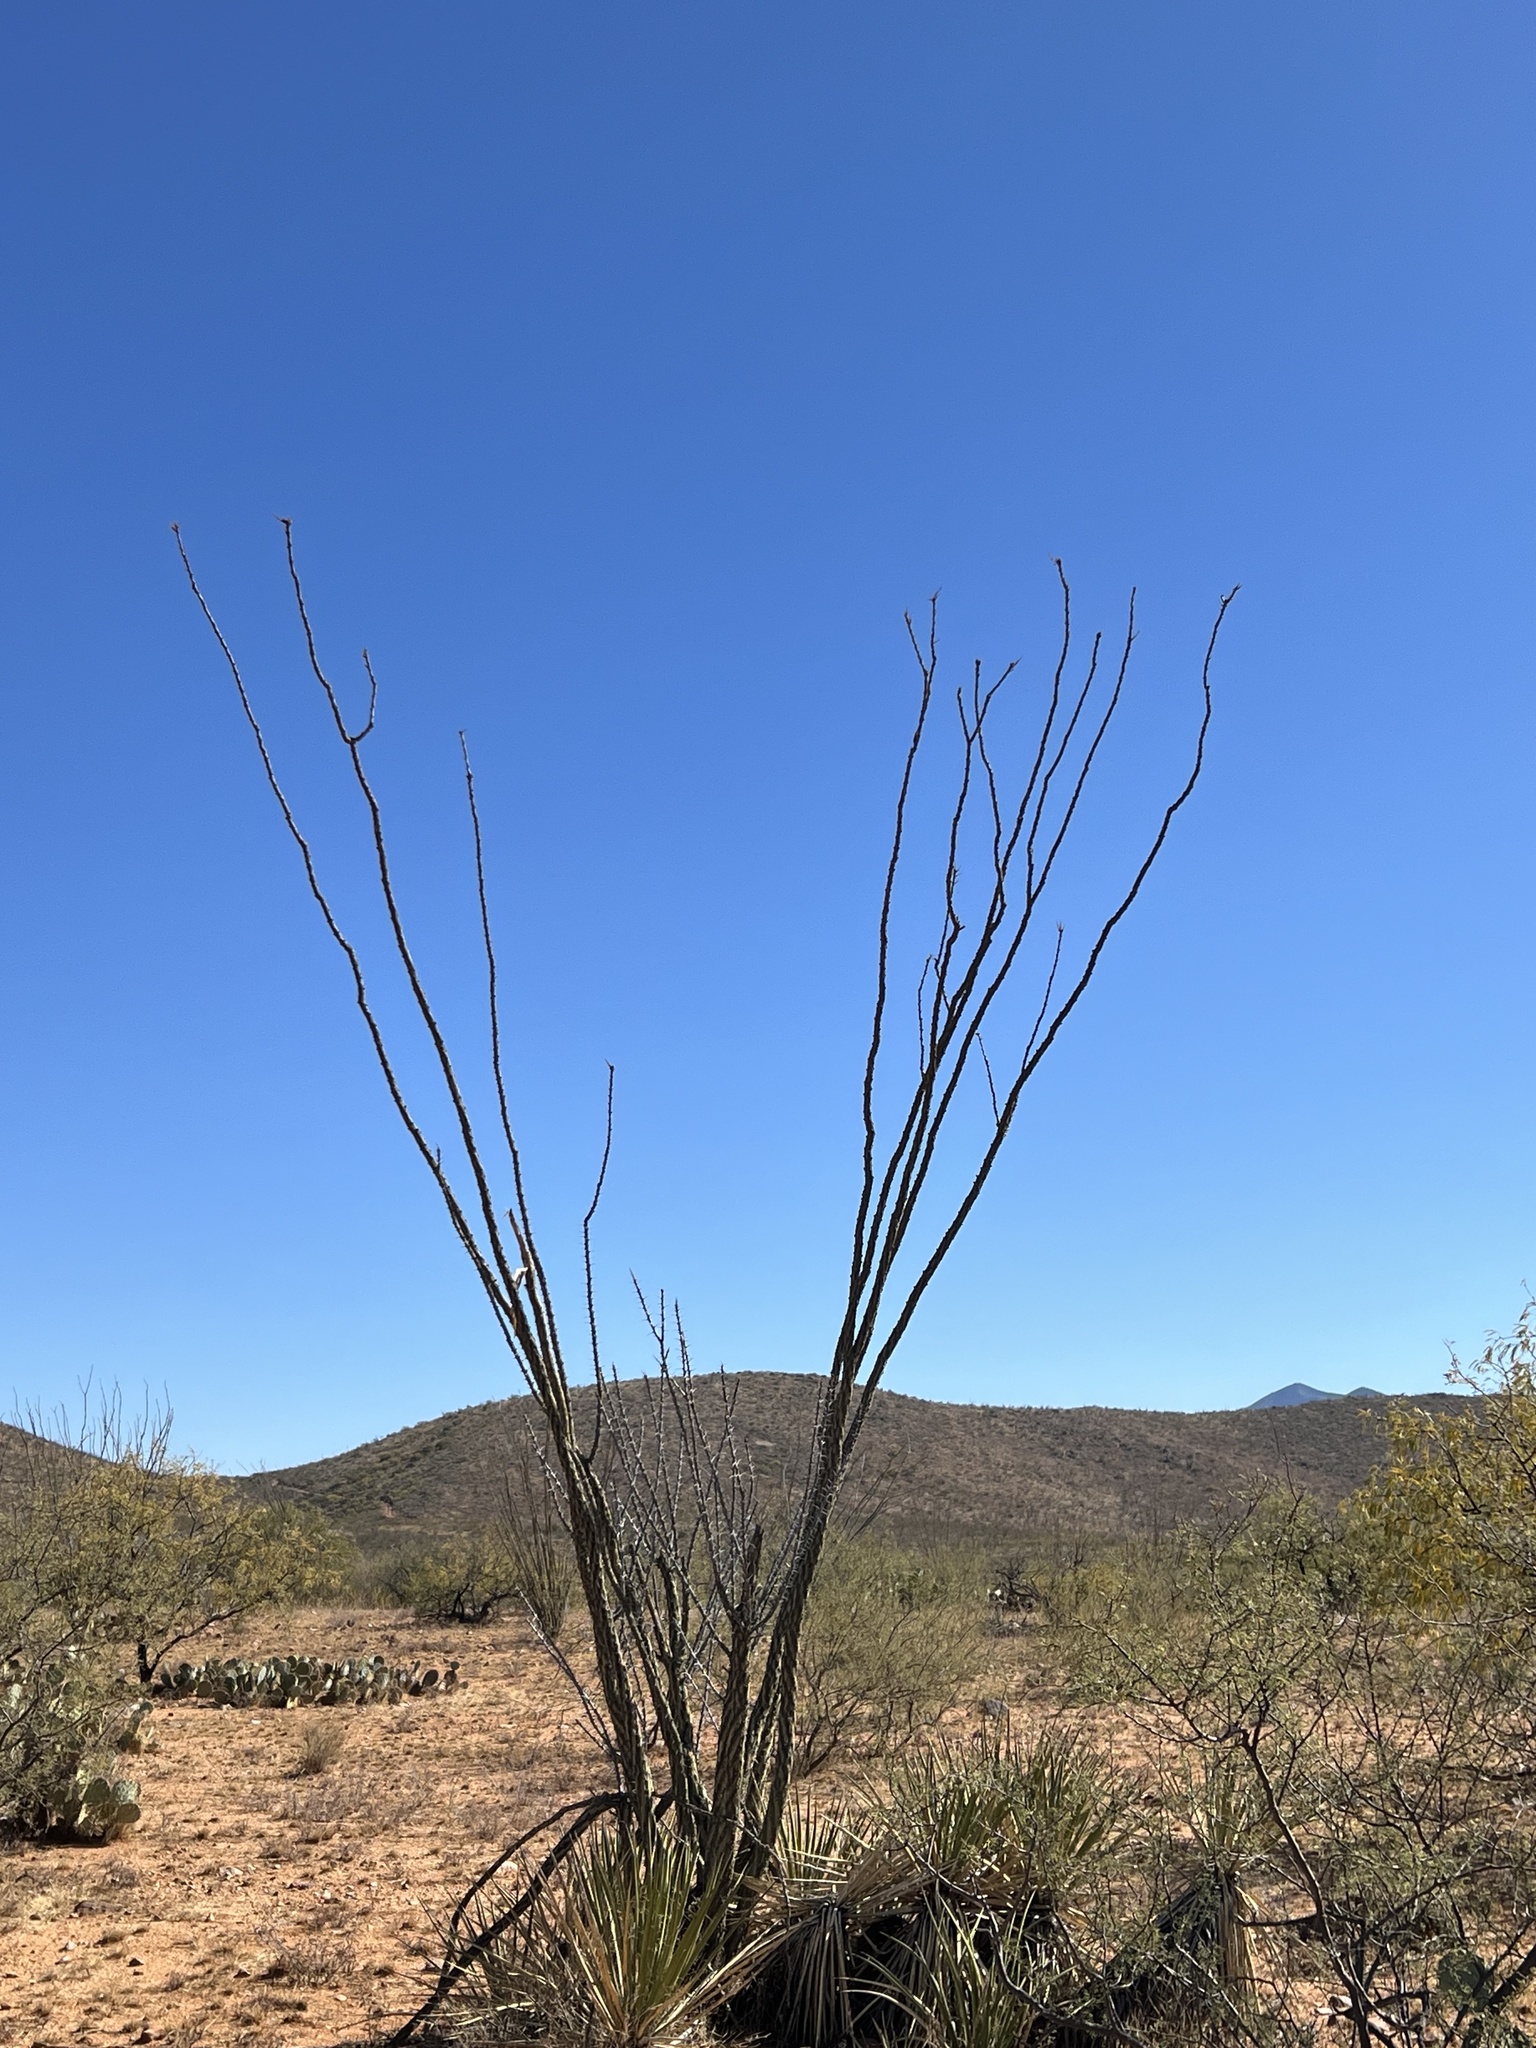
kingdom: Plantae
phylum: Tracheophyta
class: Magnoliopsida
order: Ericales
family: Fouquieriaceae
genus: Fouquieria
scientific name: Fouquieria splendens
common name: Vine-cactus
